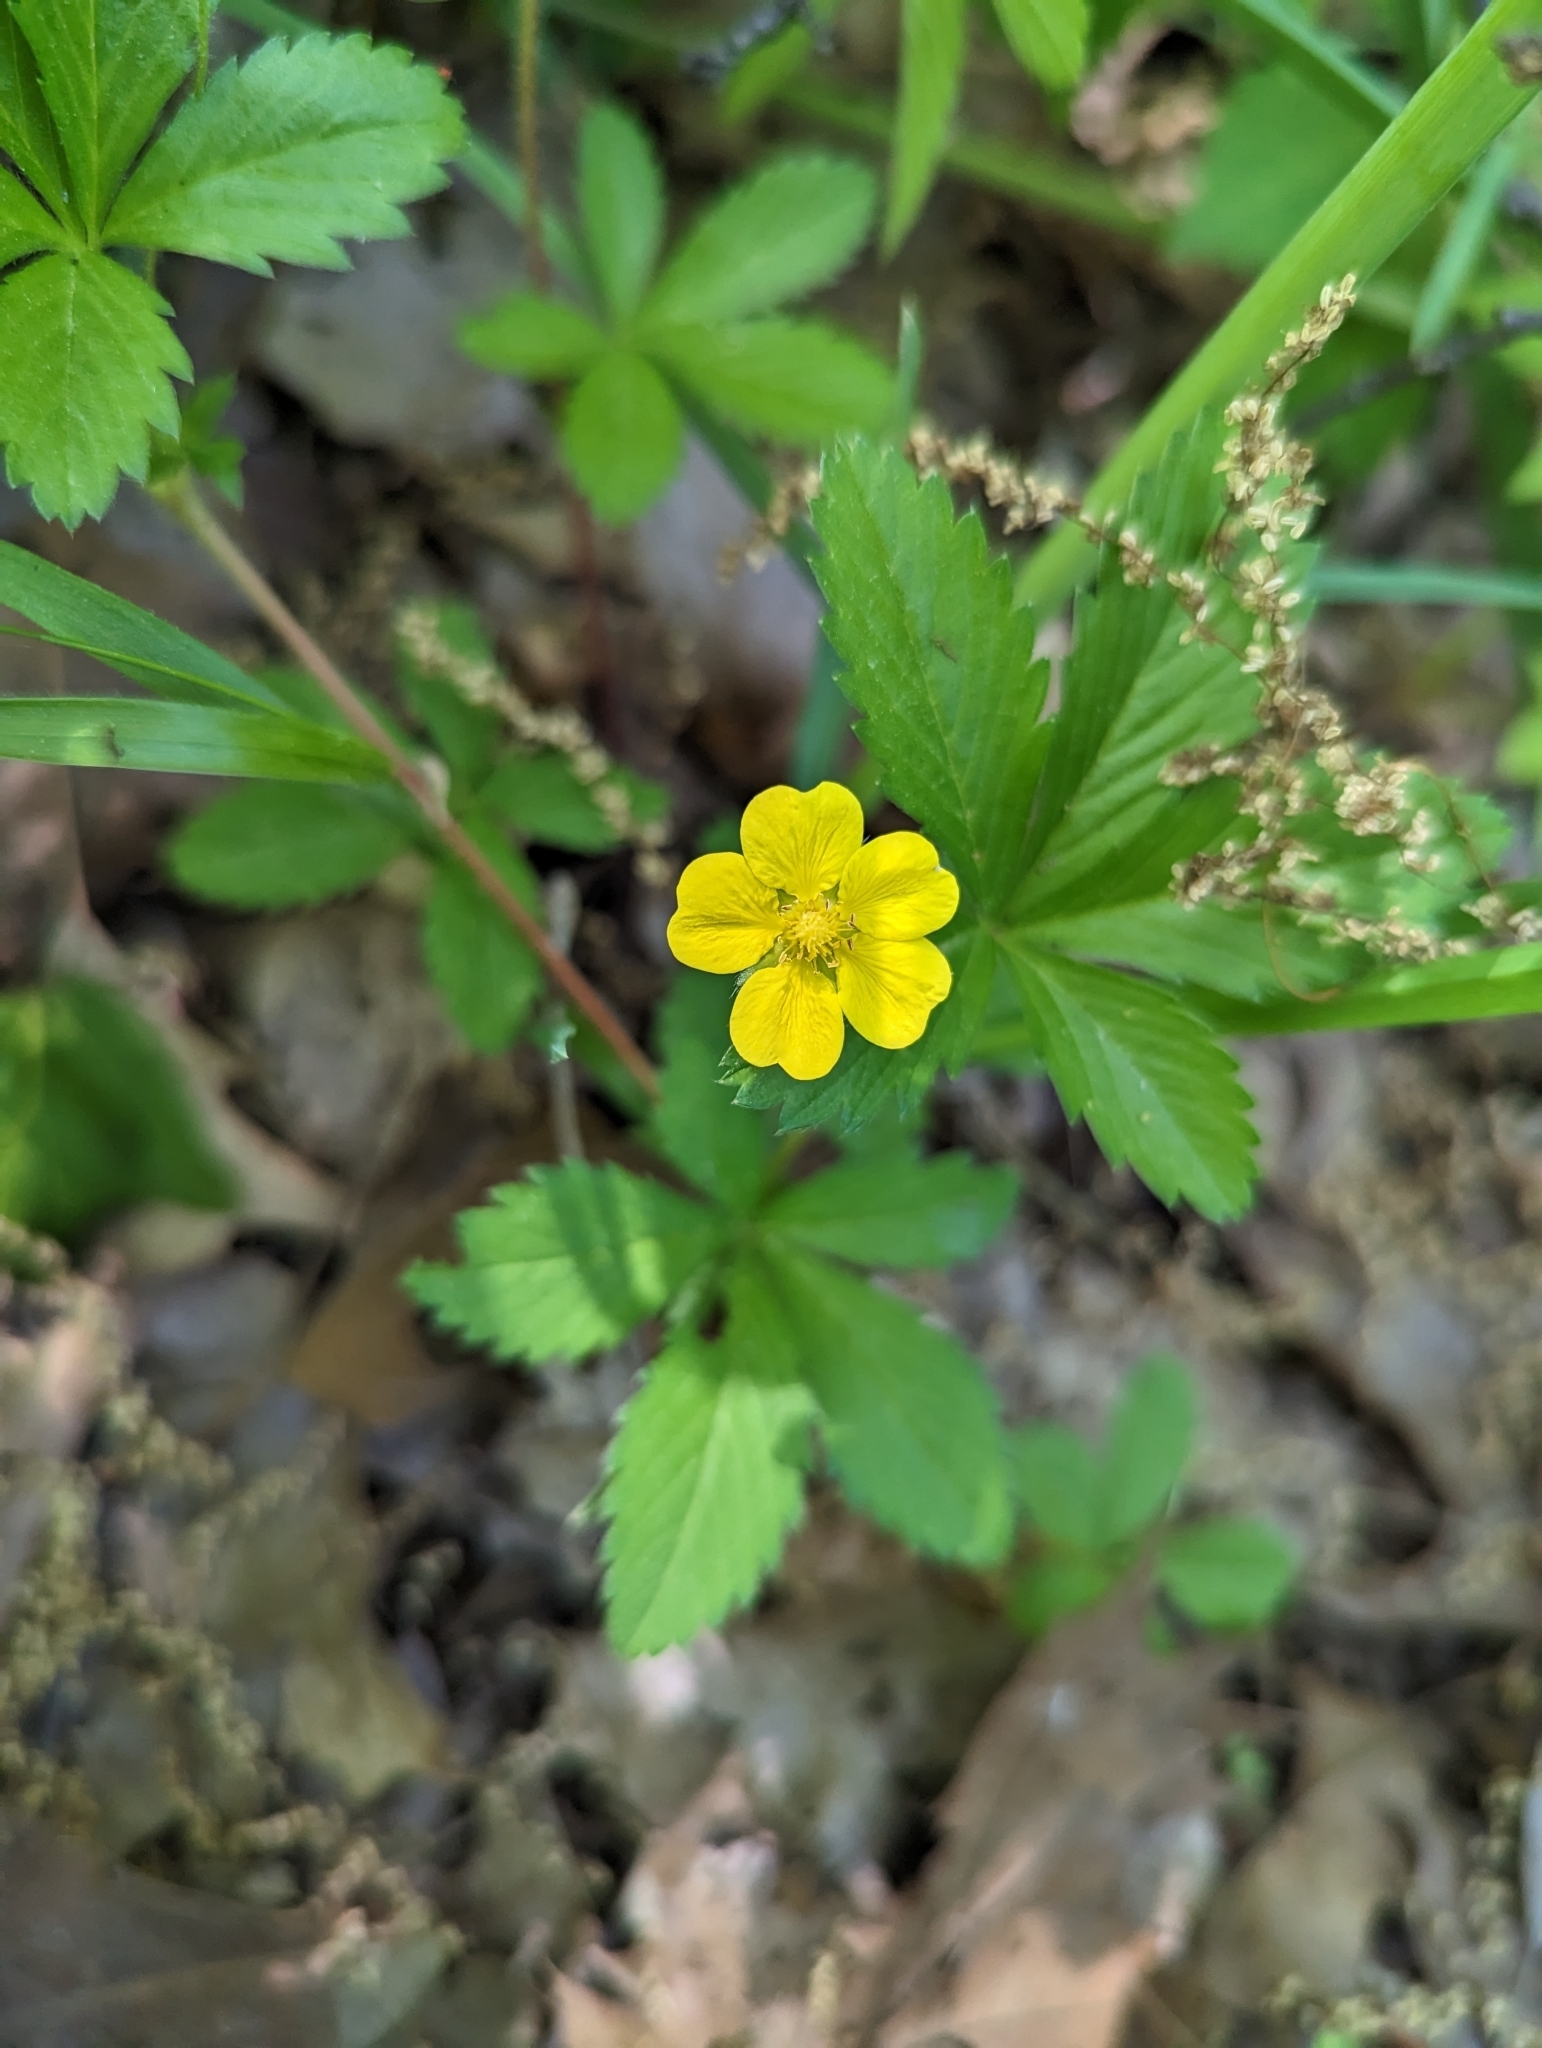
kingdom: Plantae
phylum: Tracheophyta
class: Magnoliopsida
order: Rosales
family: Rosaceae
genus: Potentilla
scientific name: Potentilla simplex
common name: Old field cinquefoil
